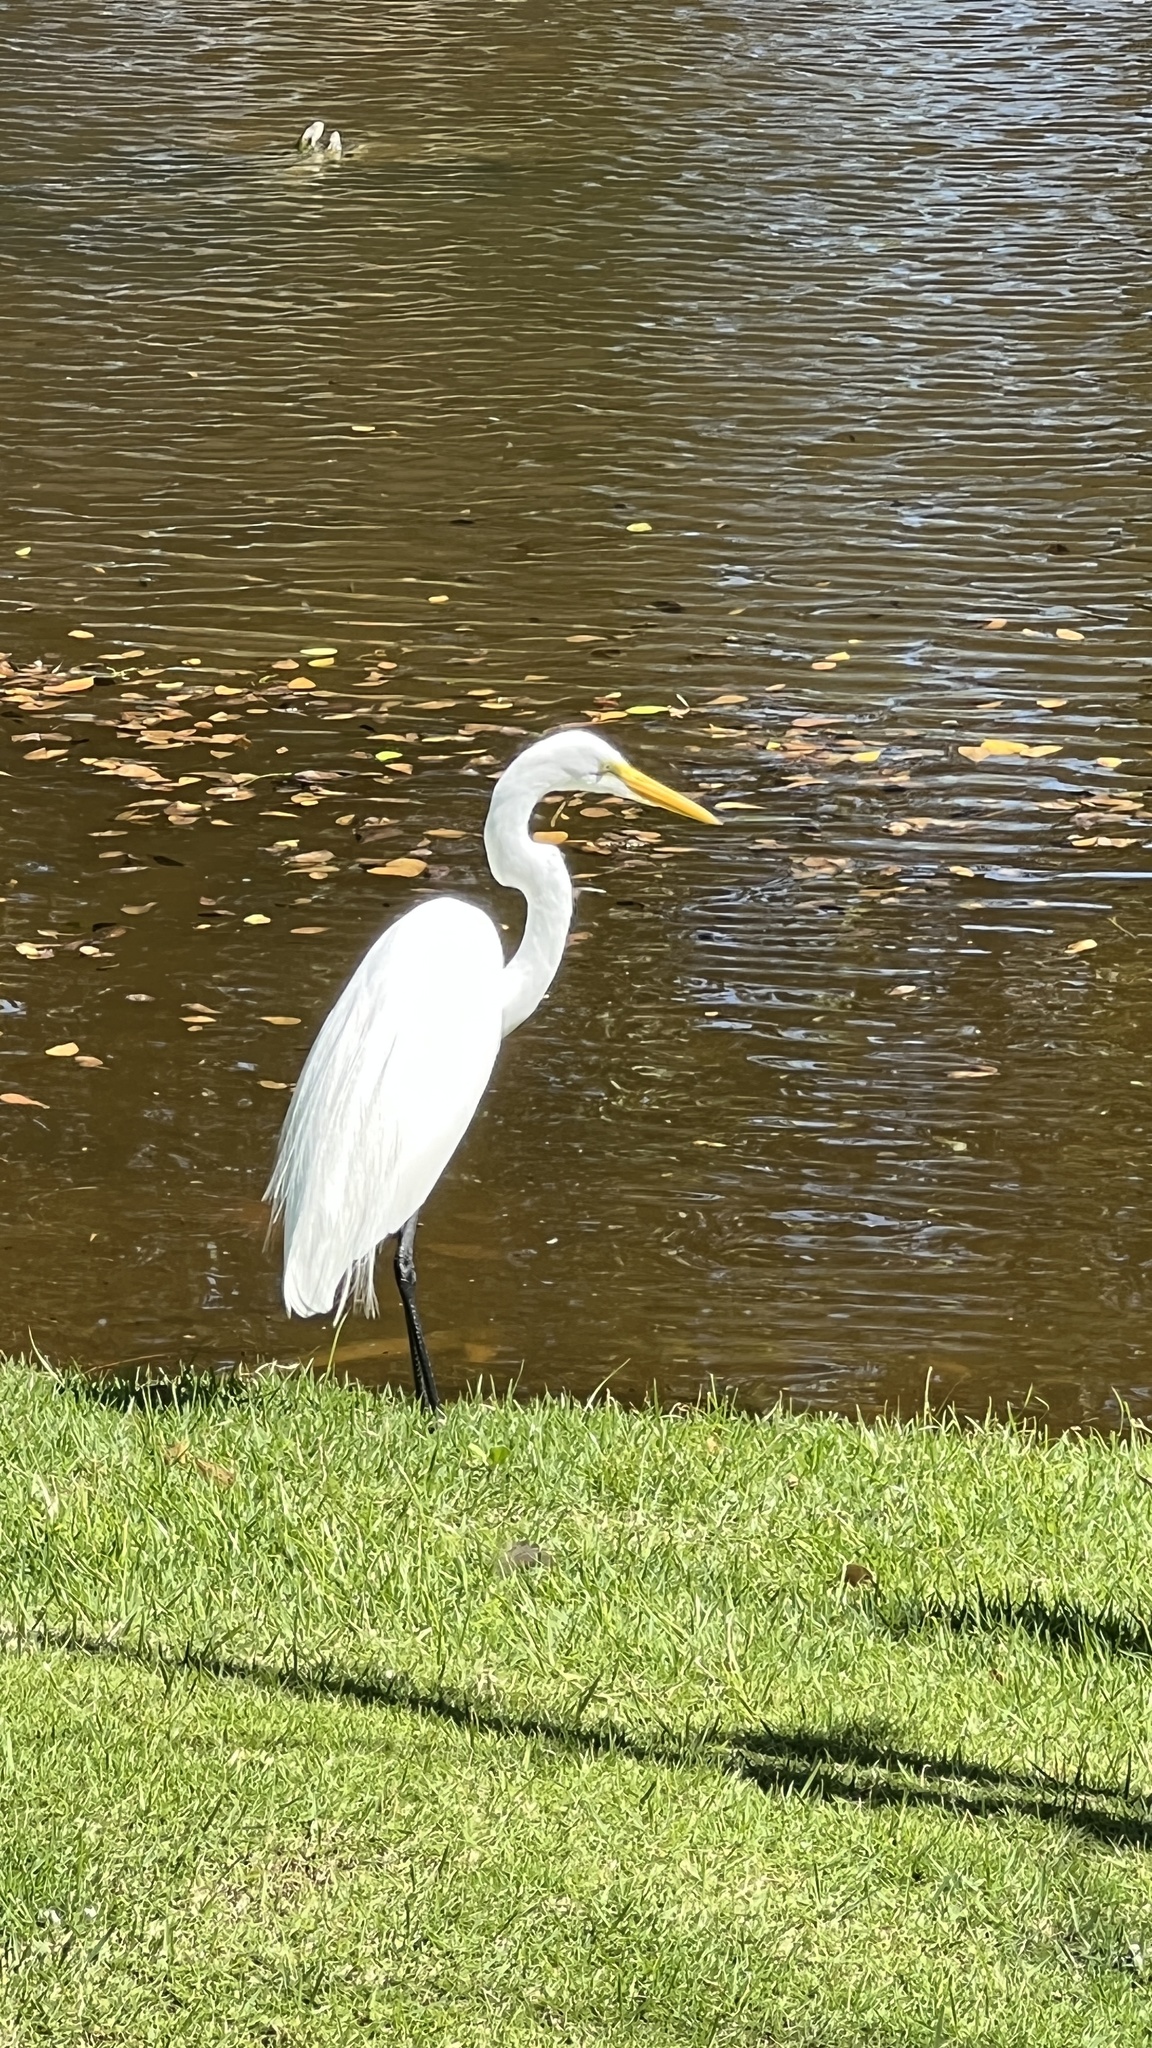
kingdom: Animalia
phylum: Chordata
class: Aves
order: Pelecaniformes
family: Ardeidae
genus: Ardea
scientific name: Ardea alba
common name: Great egret
